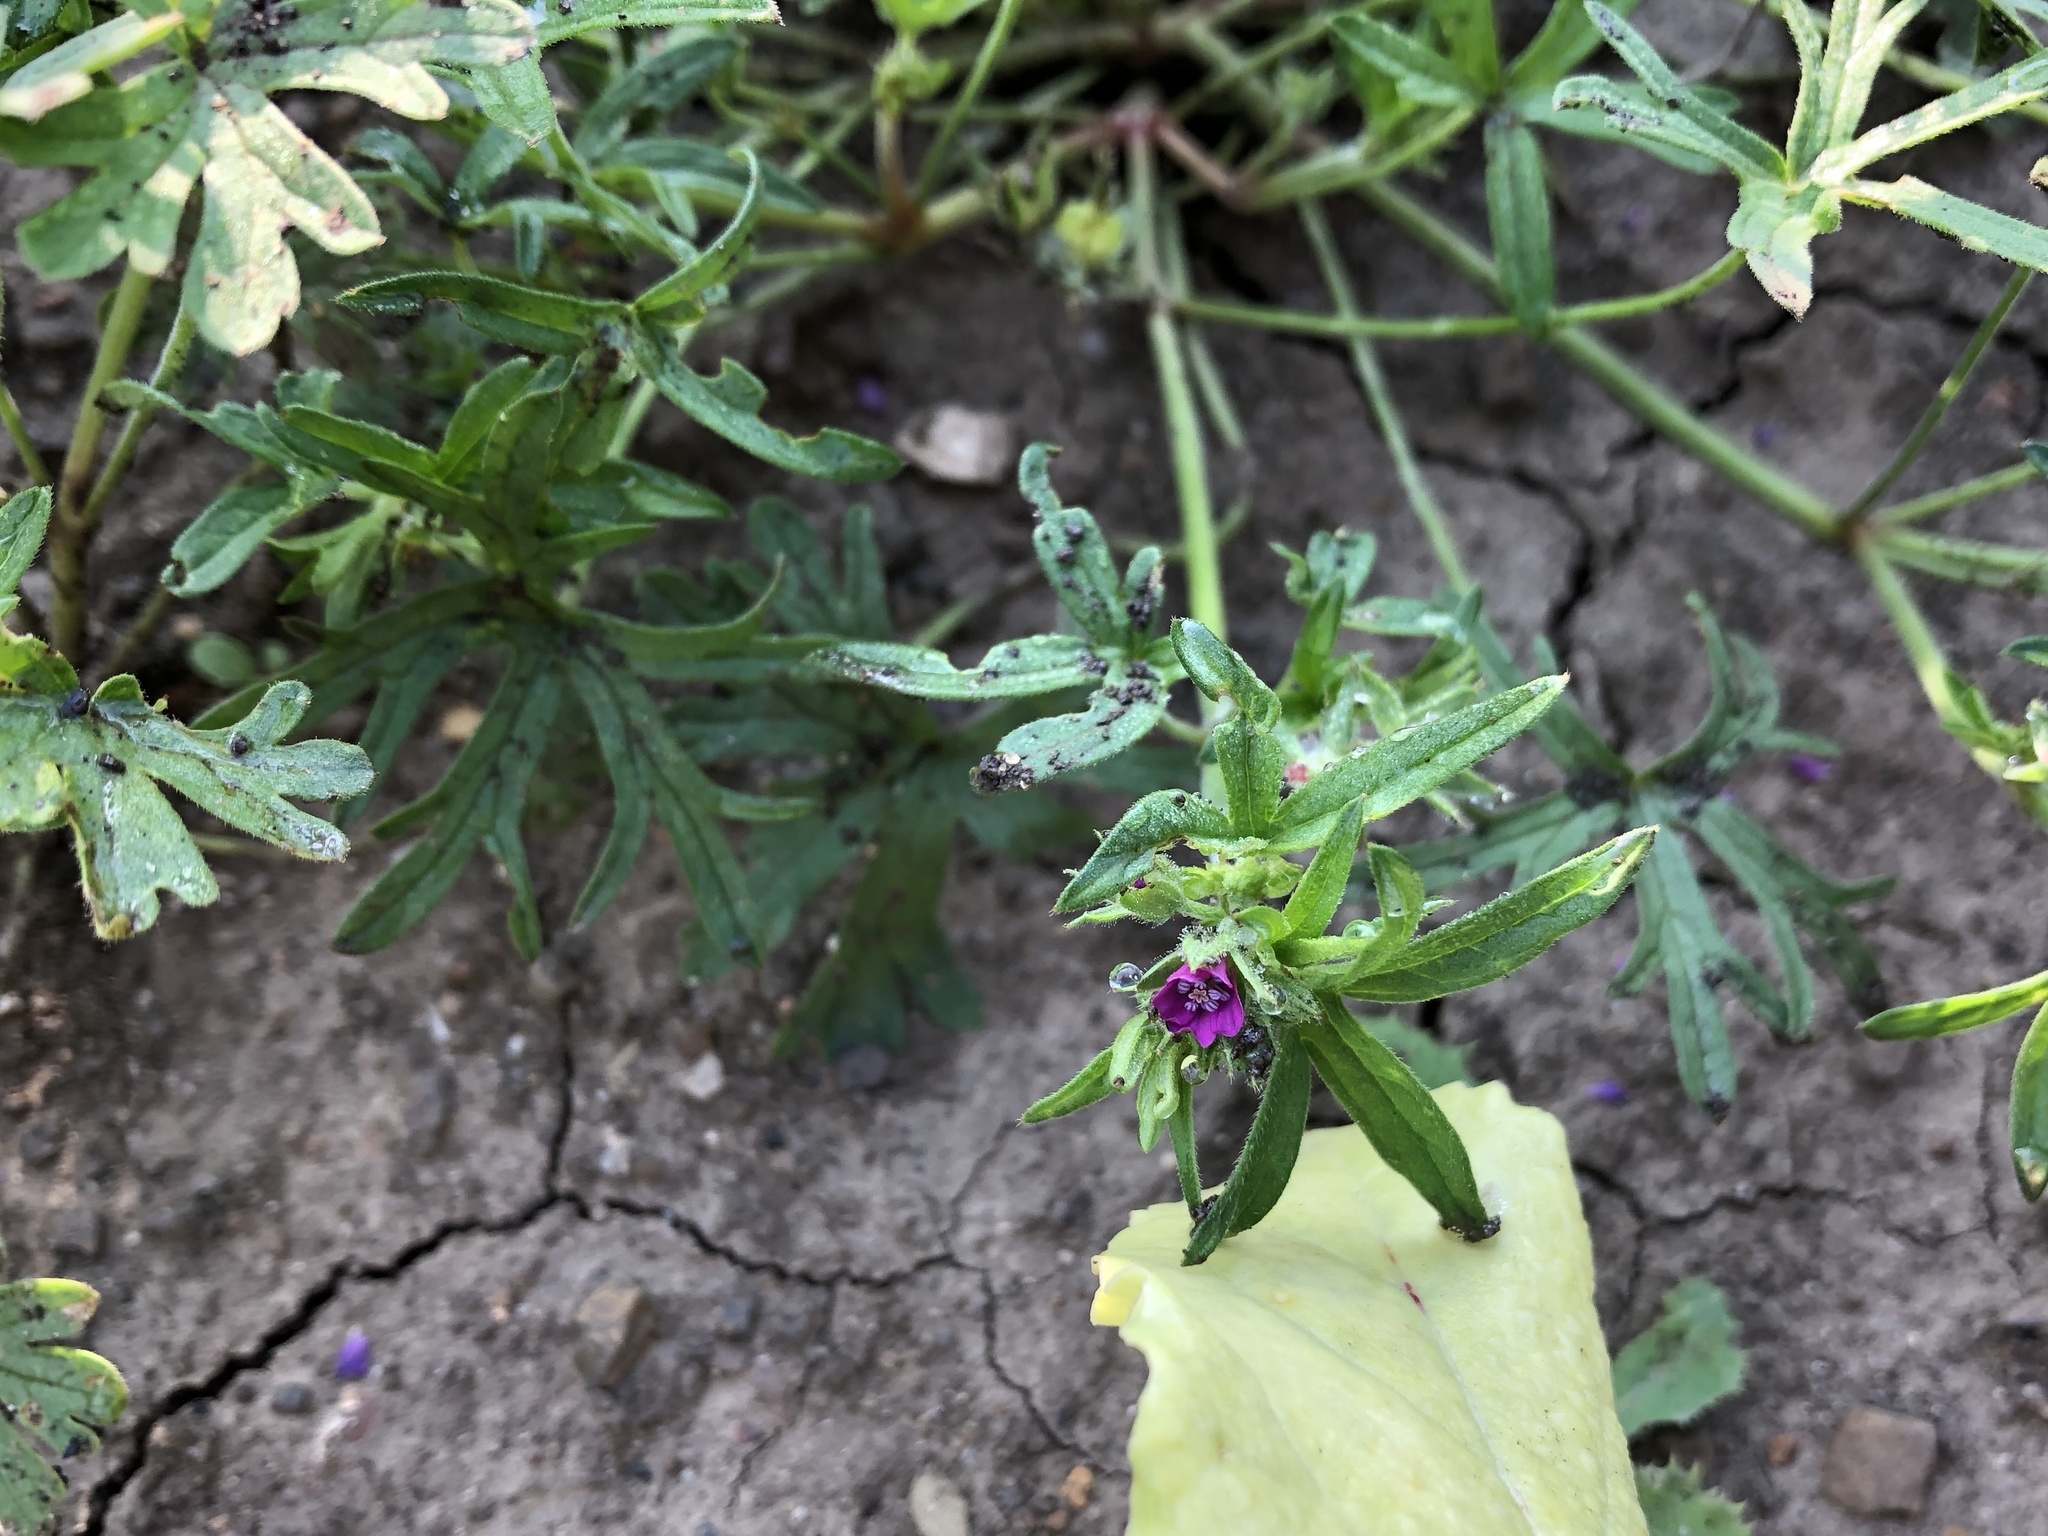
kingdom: Plantae
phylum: Tracheophyta
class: Magnoliopsida
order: Geraniales
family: Geraniaceae
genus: Geranium
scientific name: Geranium dissectum
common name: Cut-leaved crane's-bill
